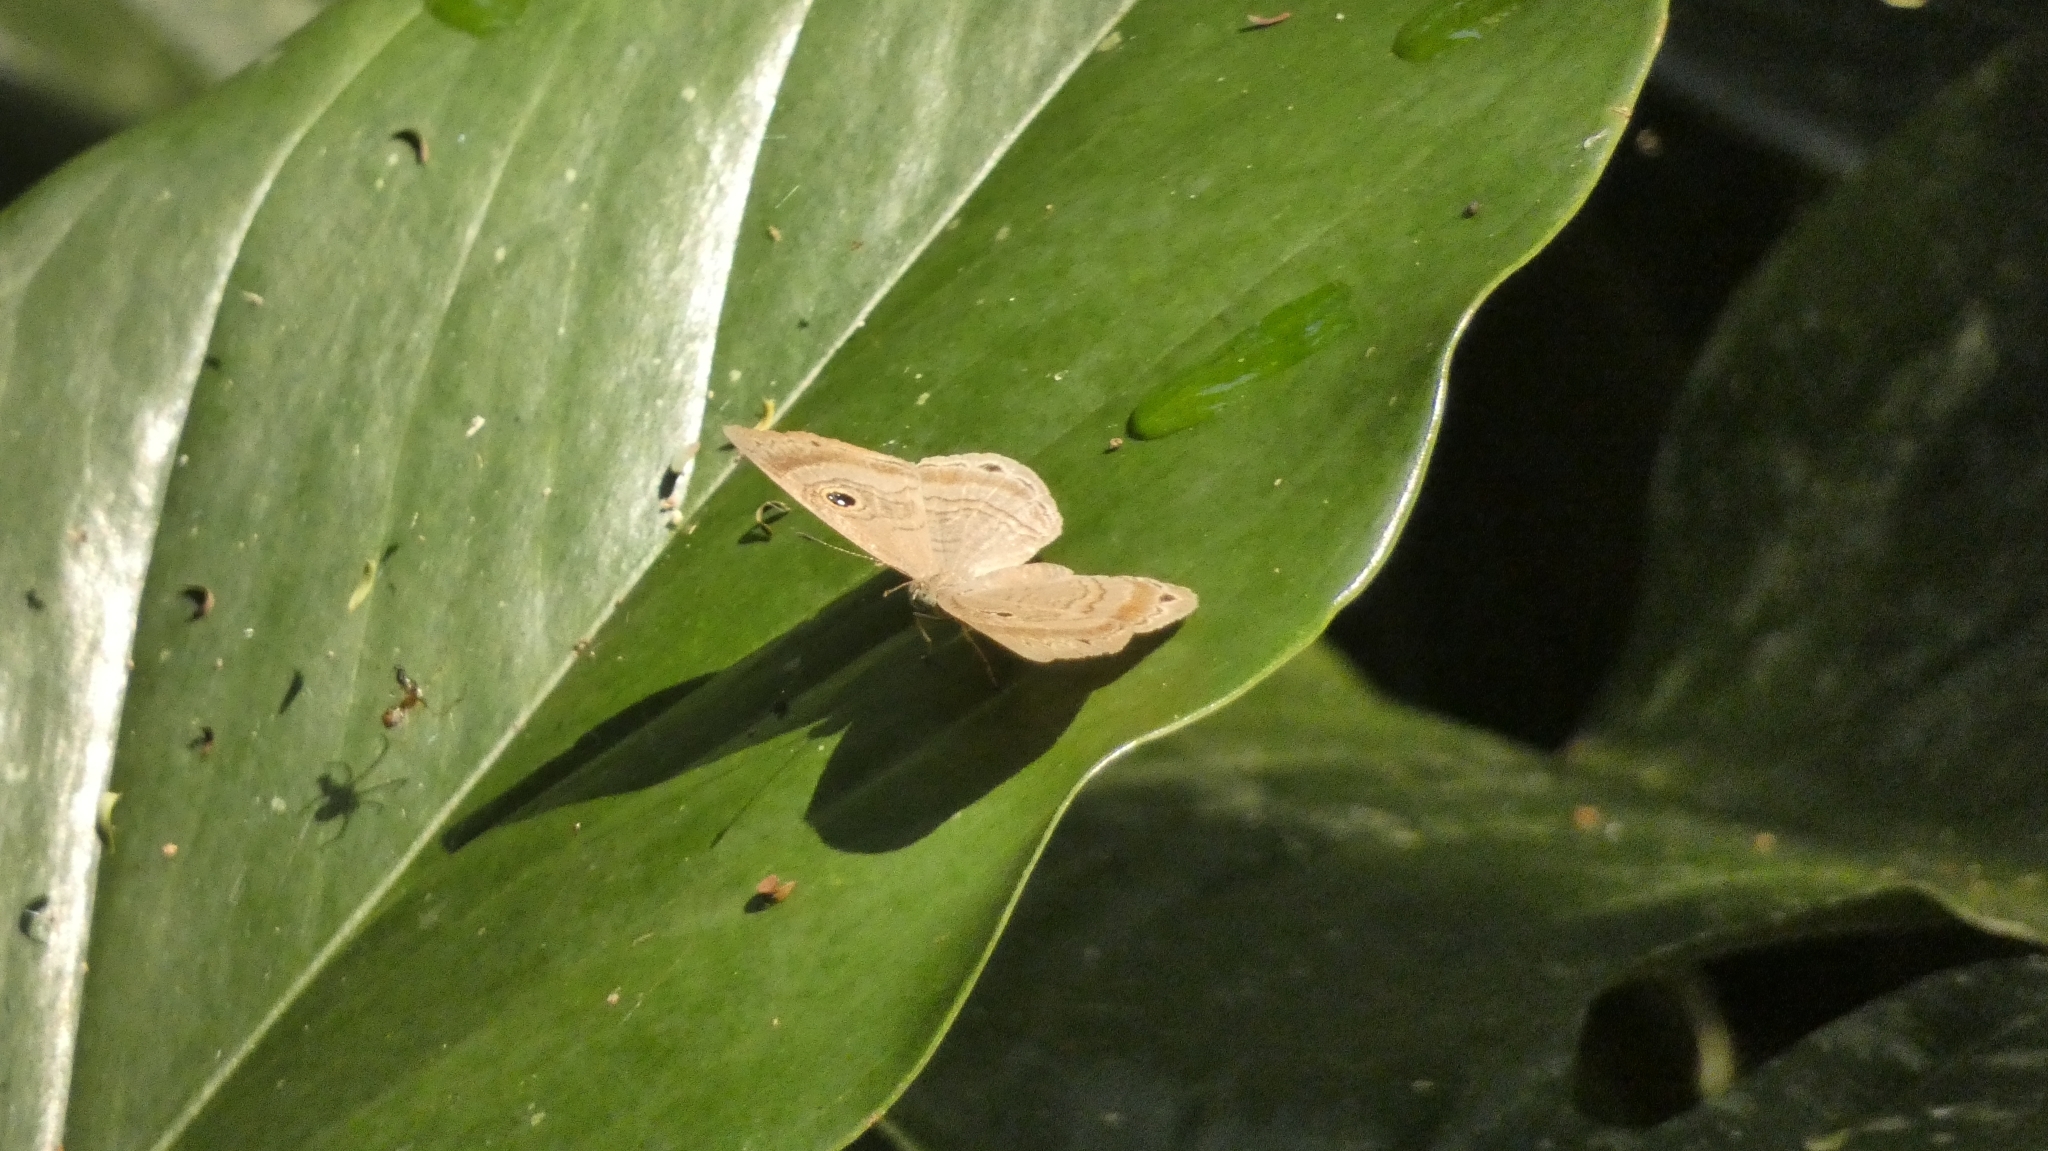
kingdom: Animalia
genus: Mesosemia
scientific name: Mesosemia odice
